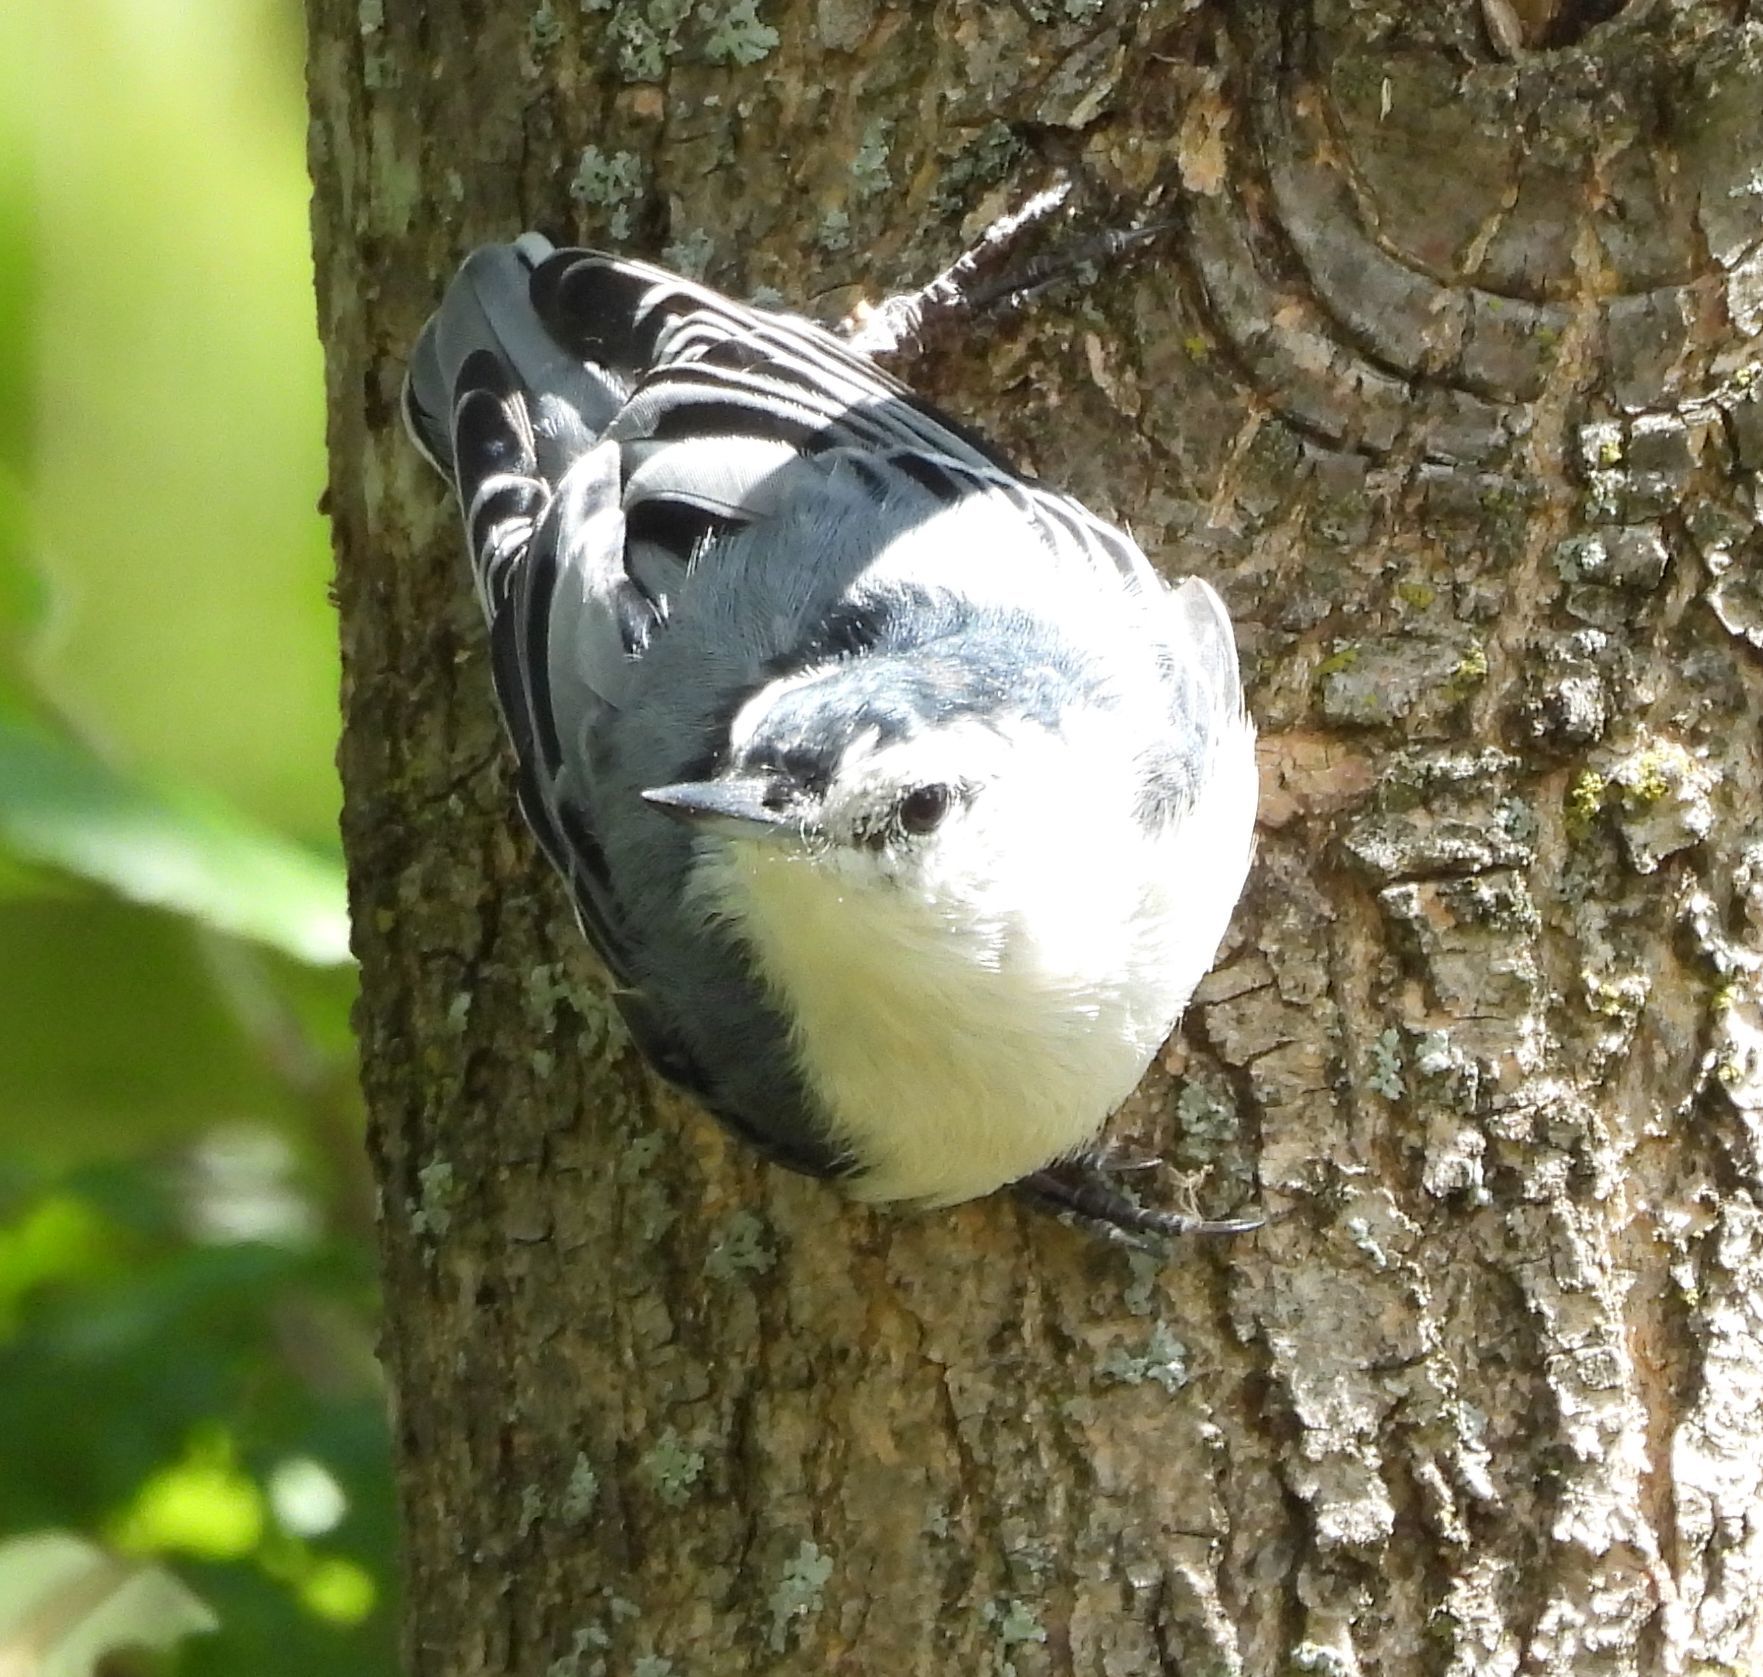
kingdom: Animalia
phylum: Chordata
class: Aves
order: Passeriformes
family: Sittidae
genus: Sitta
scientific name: Sitta carolinensis
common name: White-breasted nuthatch
